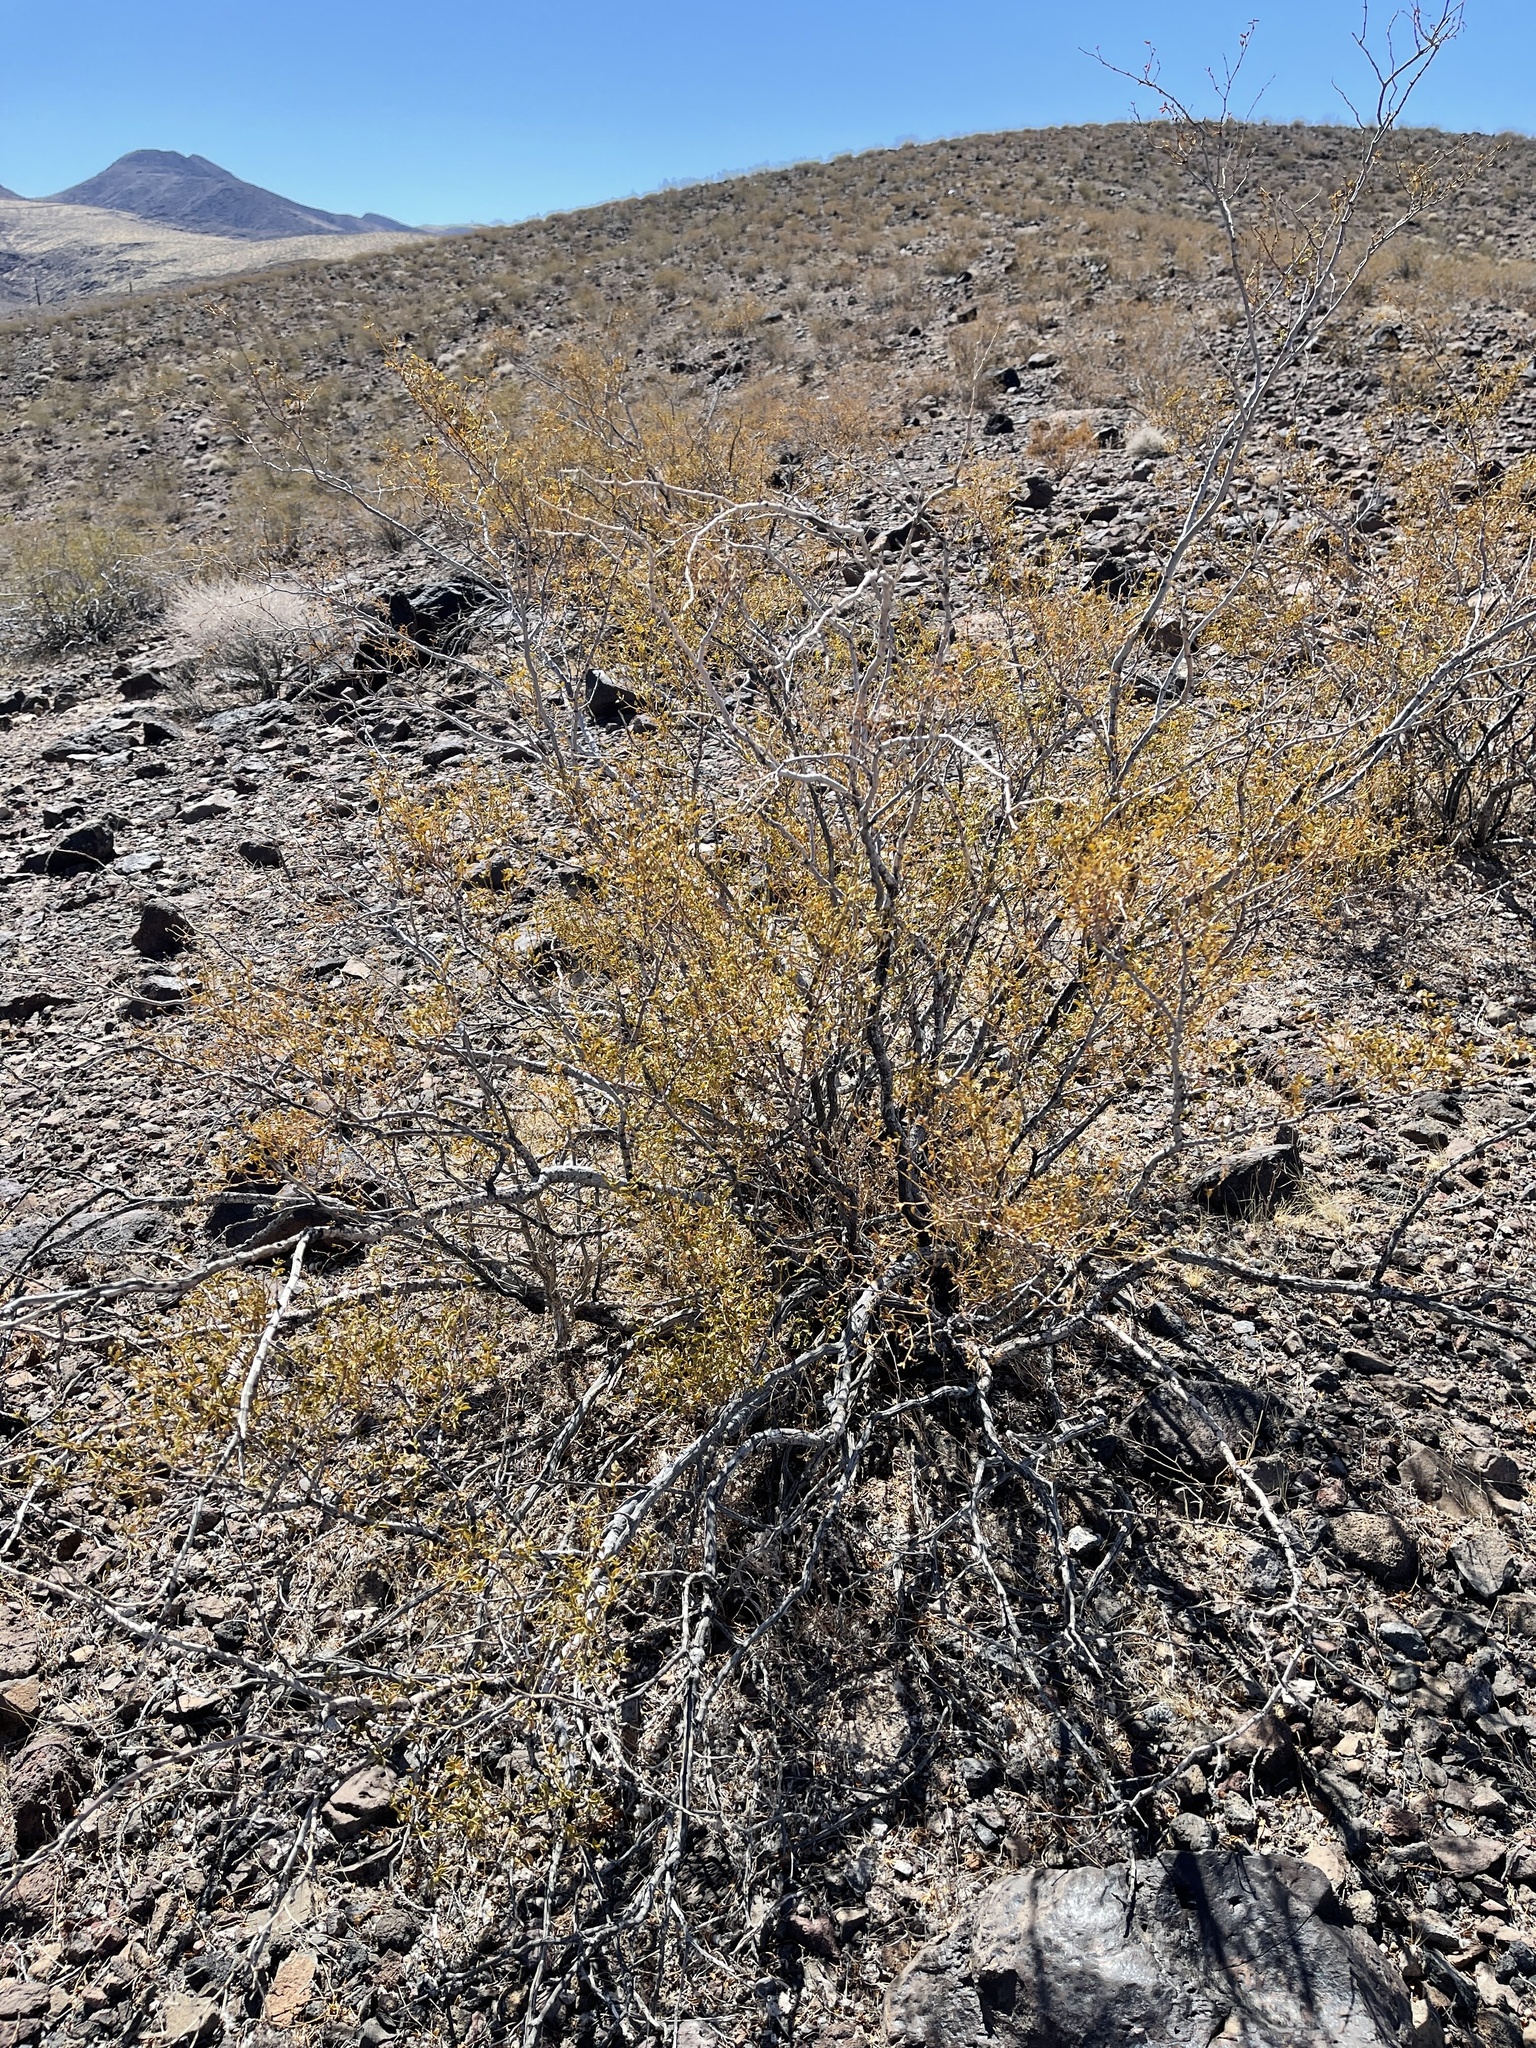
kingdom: Plantae
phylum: Tracheophyta
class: Magnoliopsida
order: Zygophyllales
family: Zygophyllaceae
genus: Larrea
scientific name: Larrea tridentata
